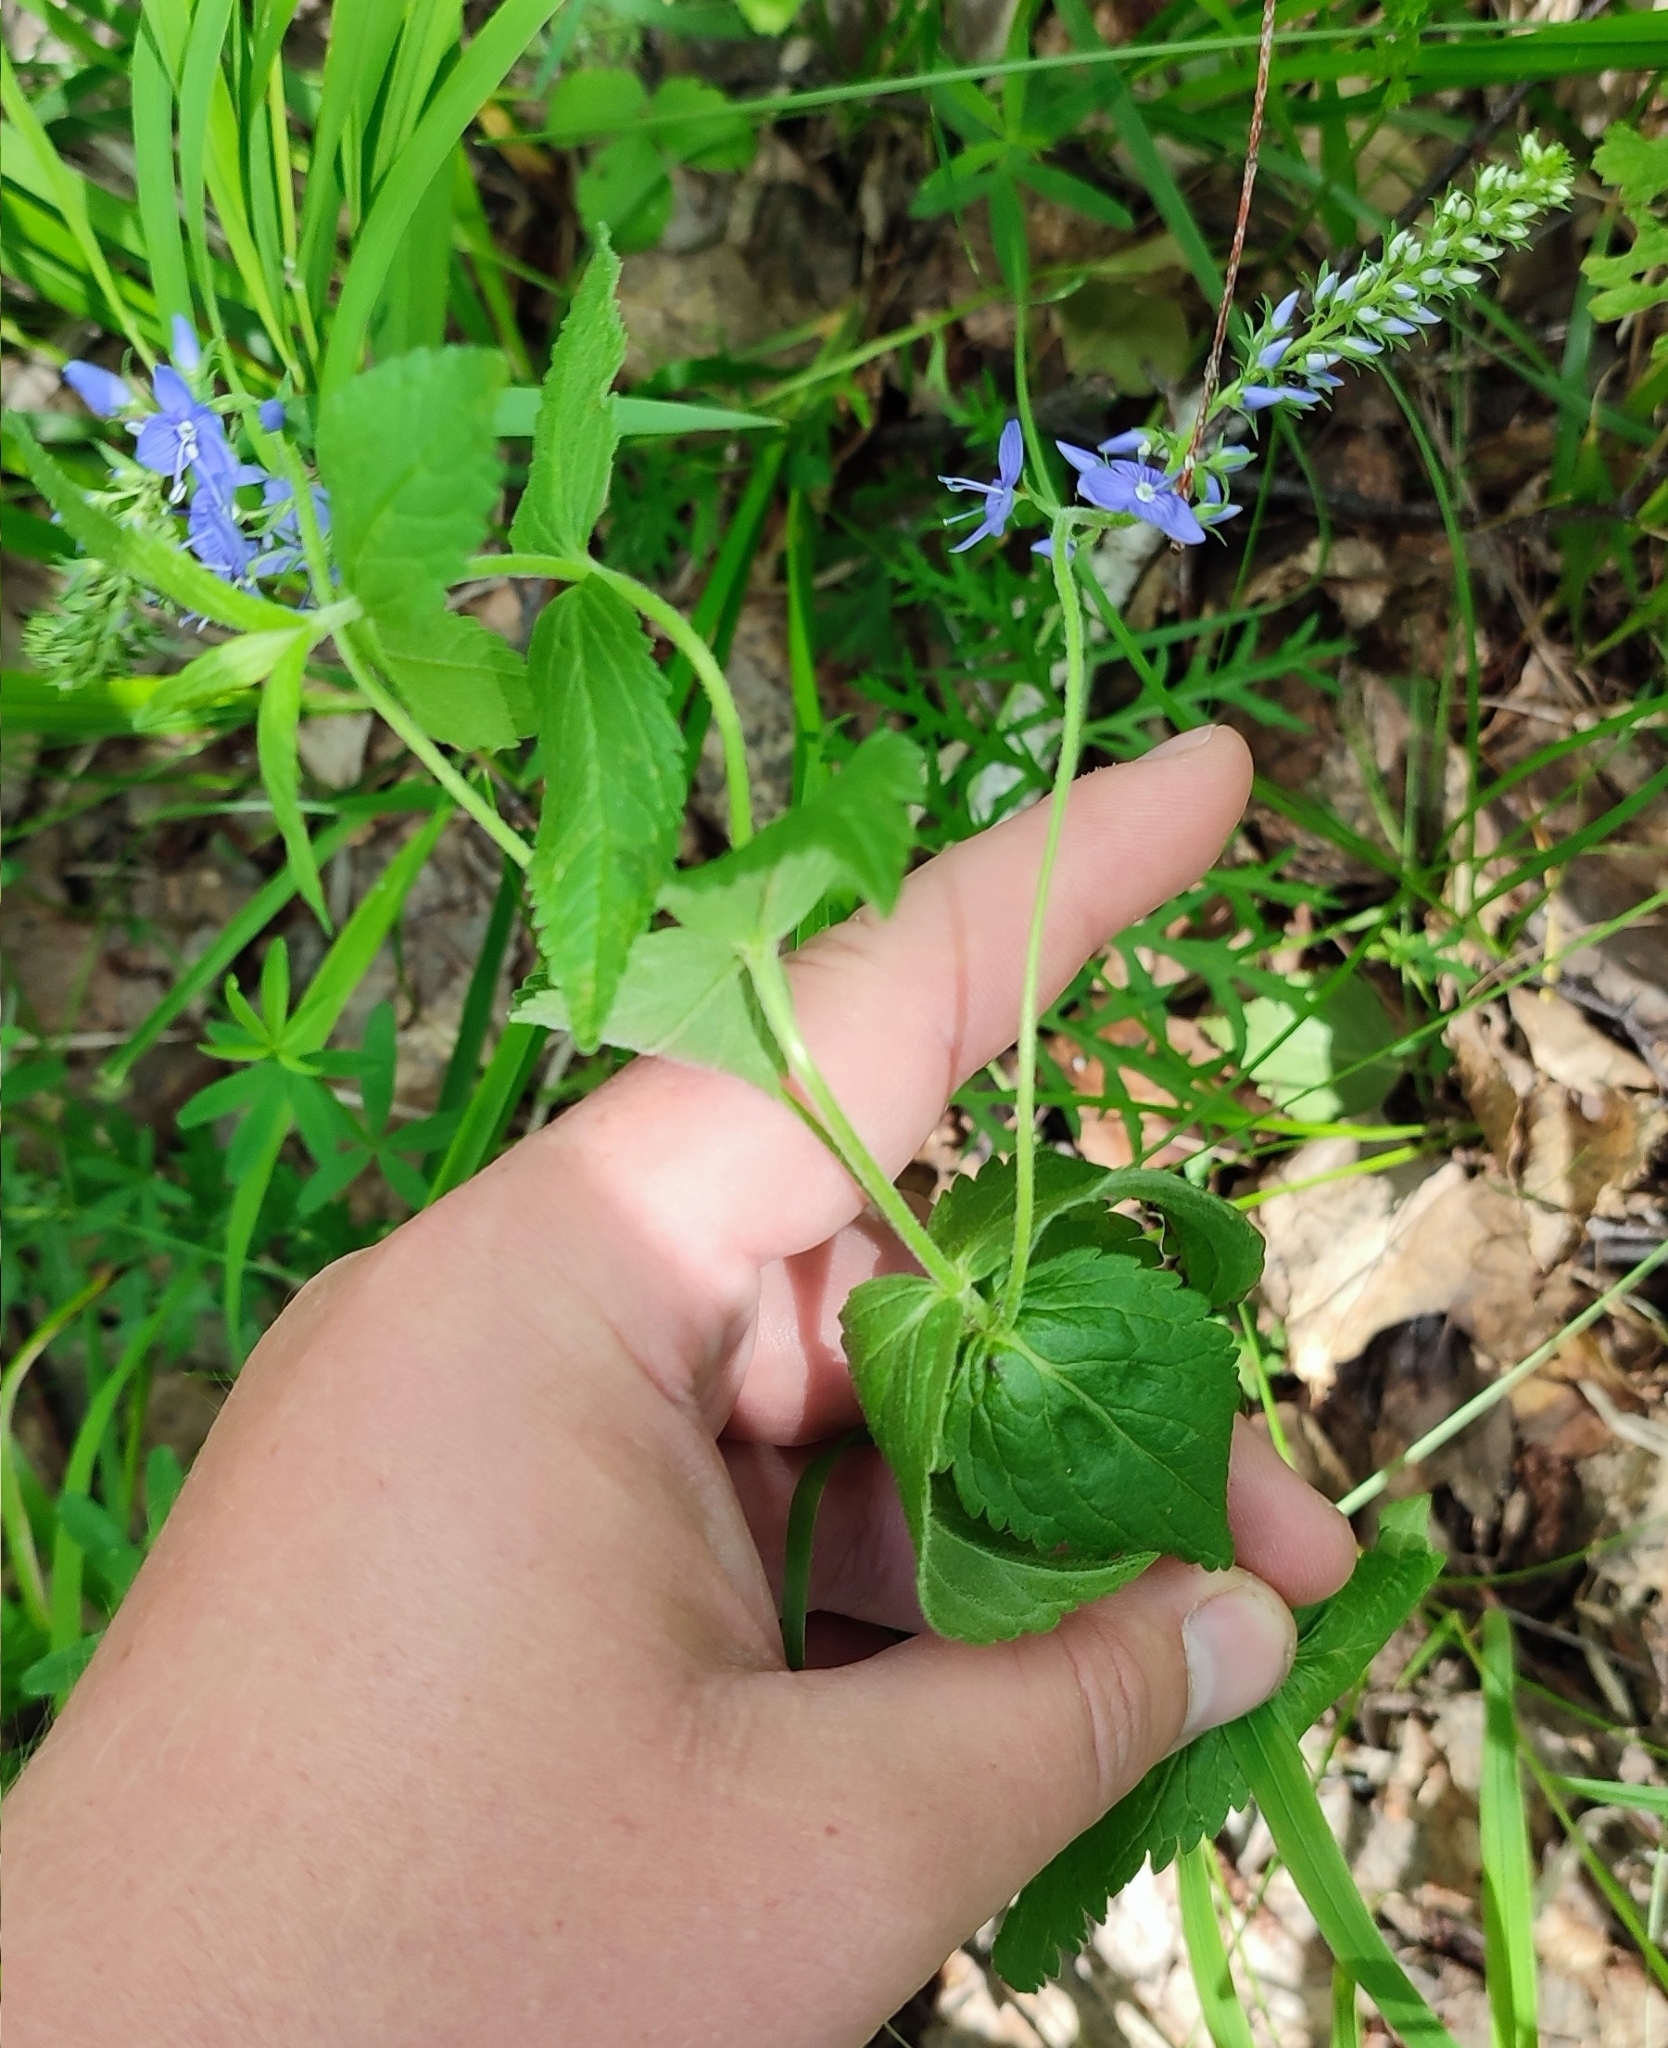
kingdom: Plantae
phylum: Tracheophyta
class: Magnoliopsida
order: Lamiales
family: Plantaginaceae
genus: Veronica
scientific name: Veronica teucrium
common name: Large speedwell
